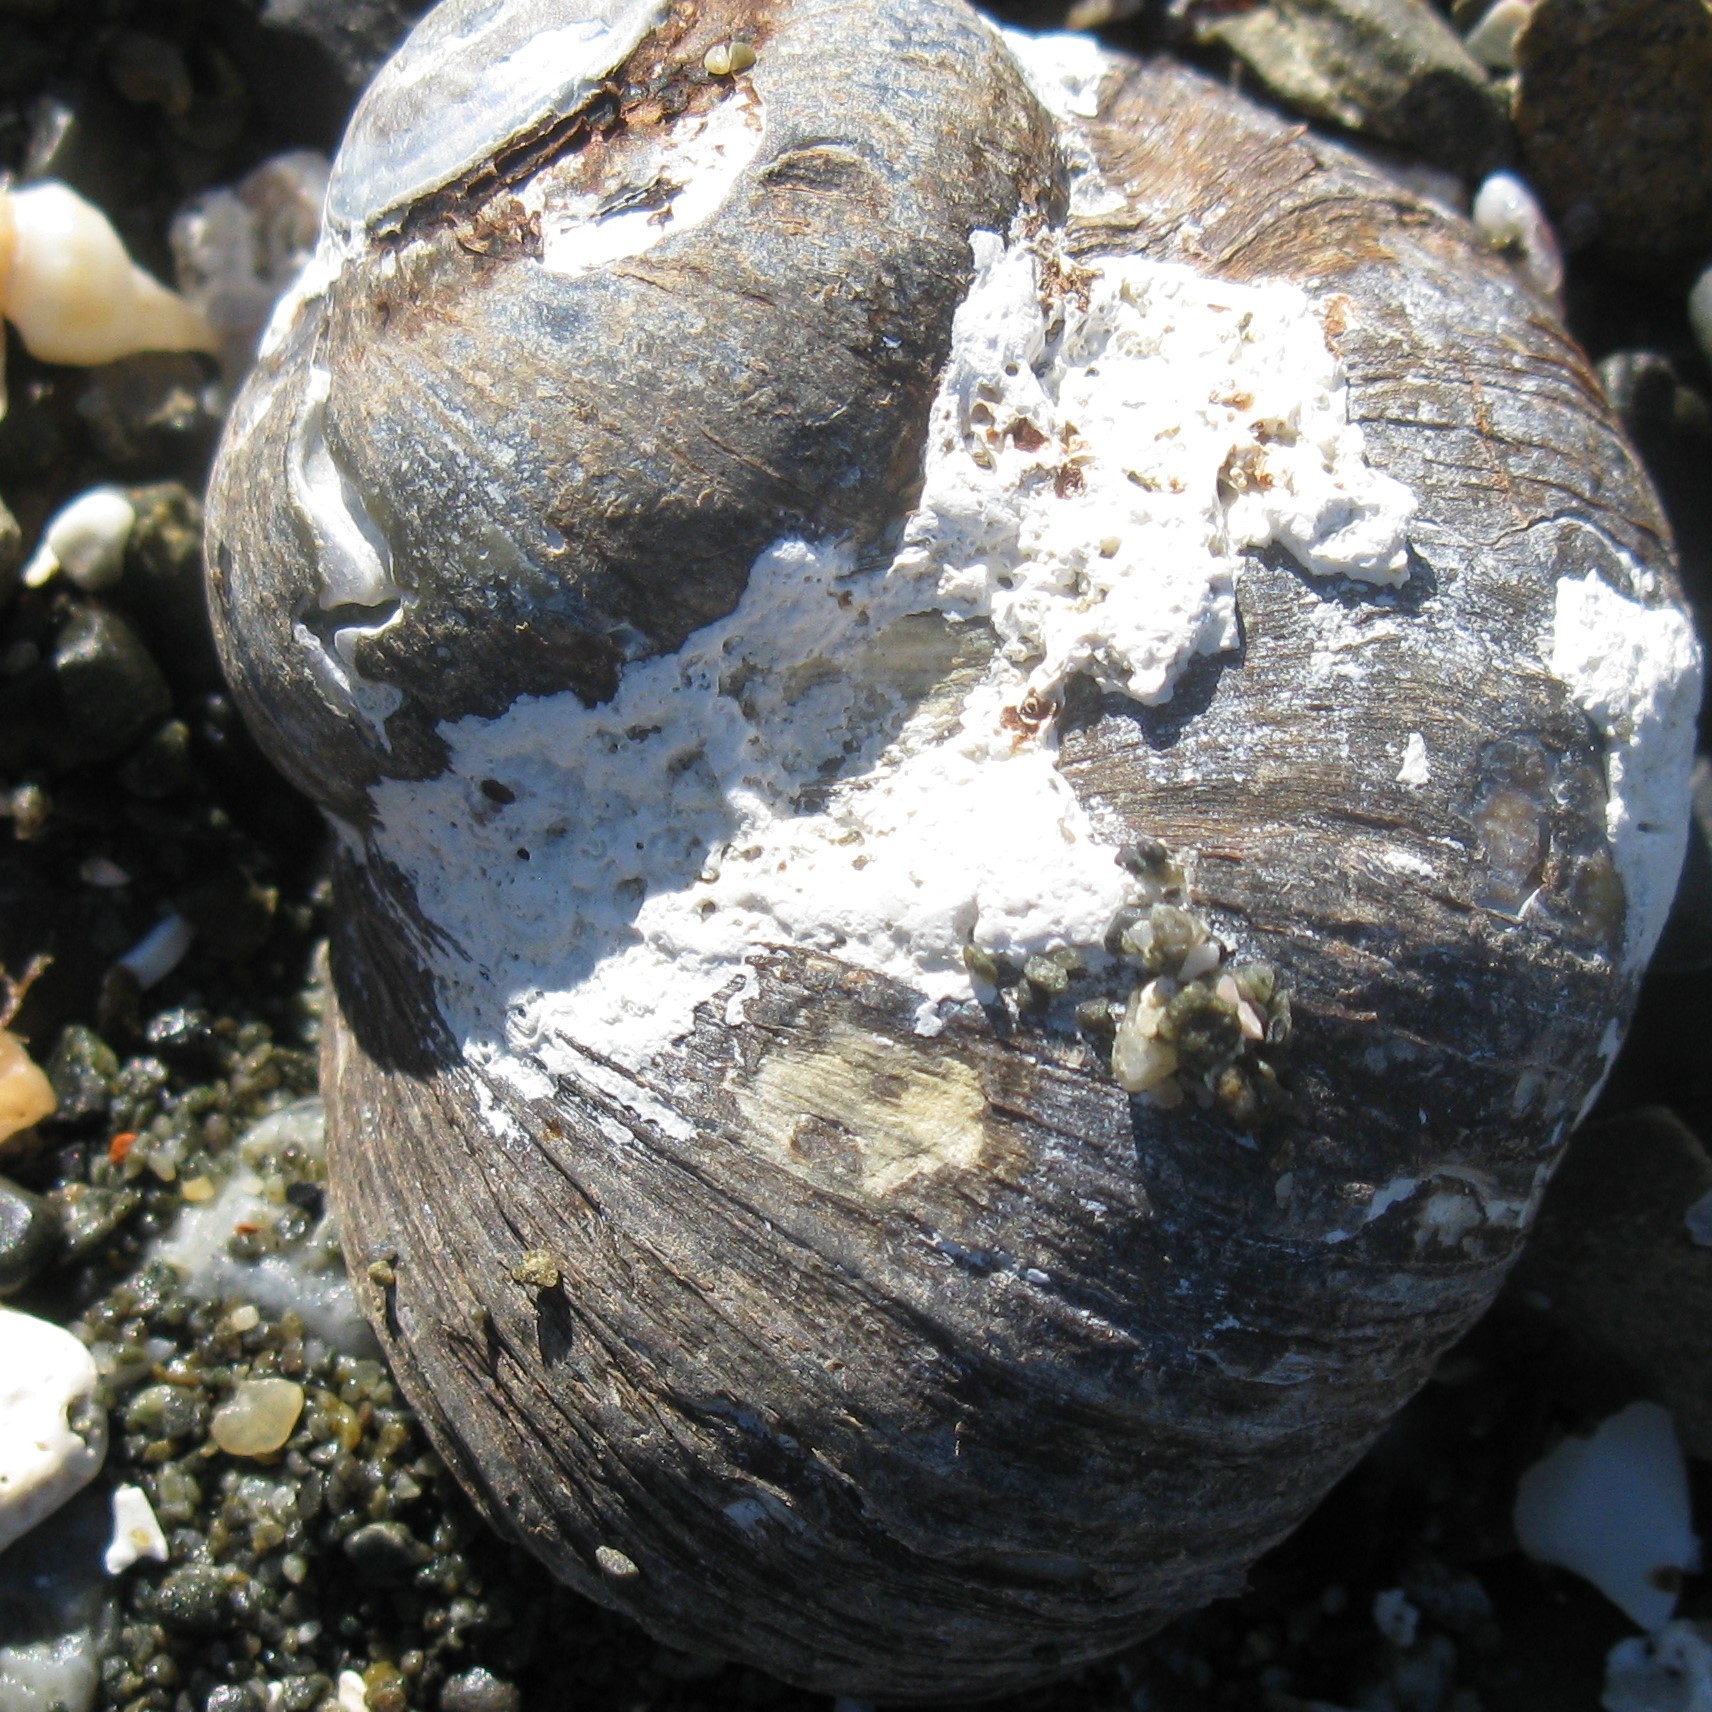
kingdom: Animalia
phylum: Mollusca
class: Gastropoda
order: Trochida
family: Turbinidae
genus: Lunella
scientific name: Lunella smaragda
